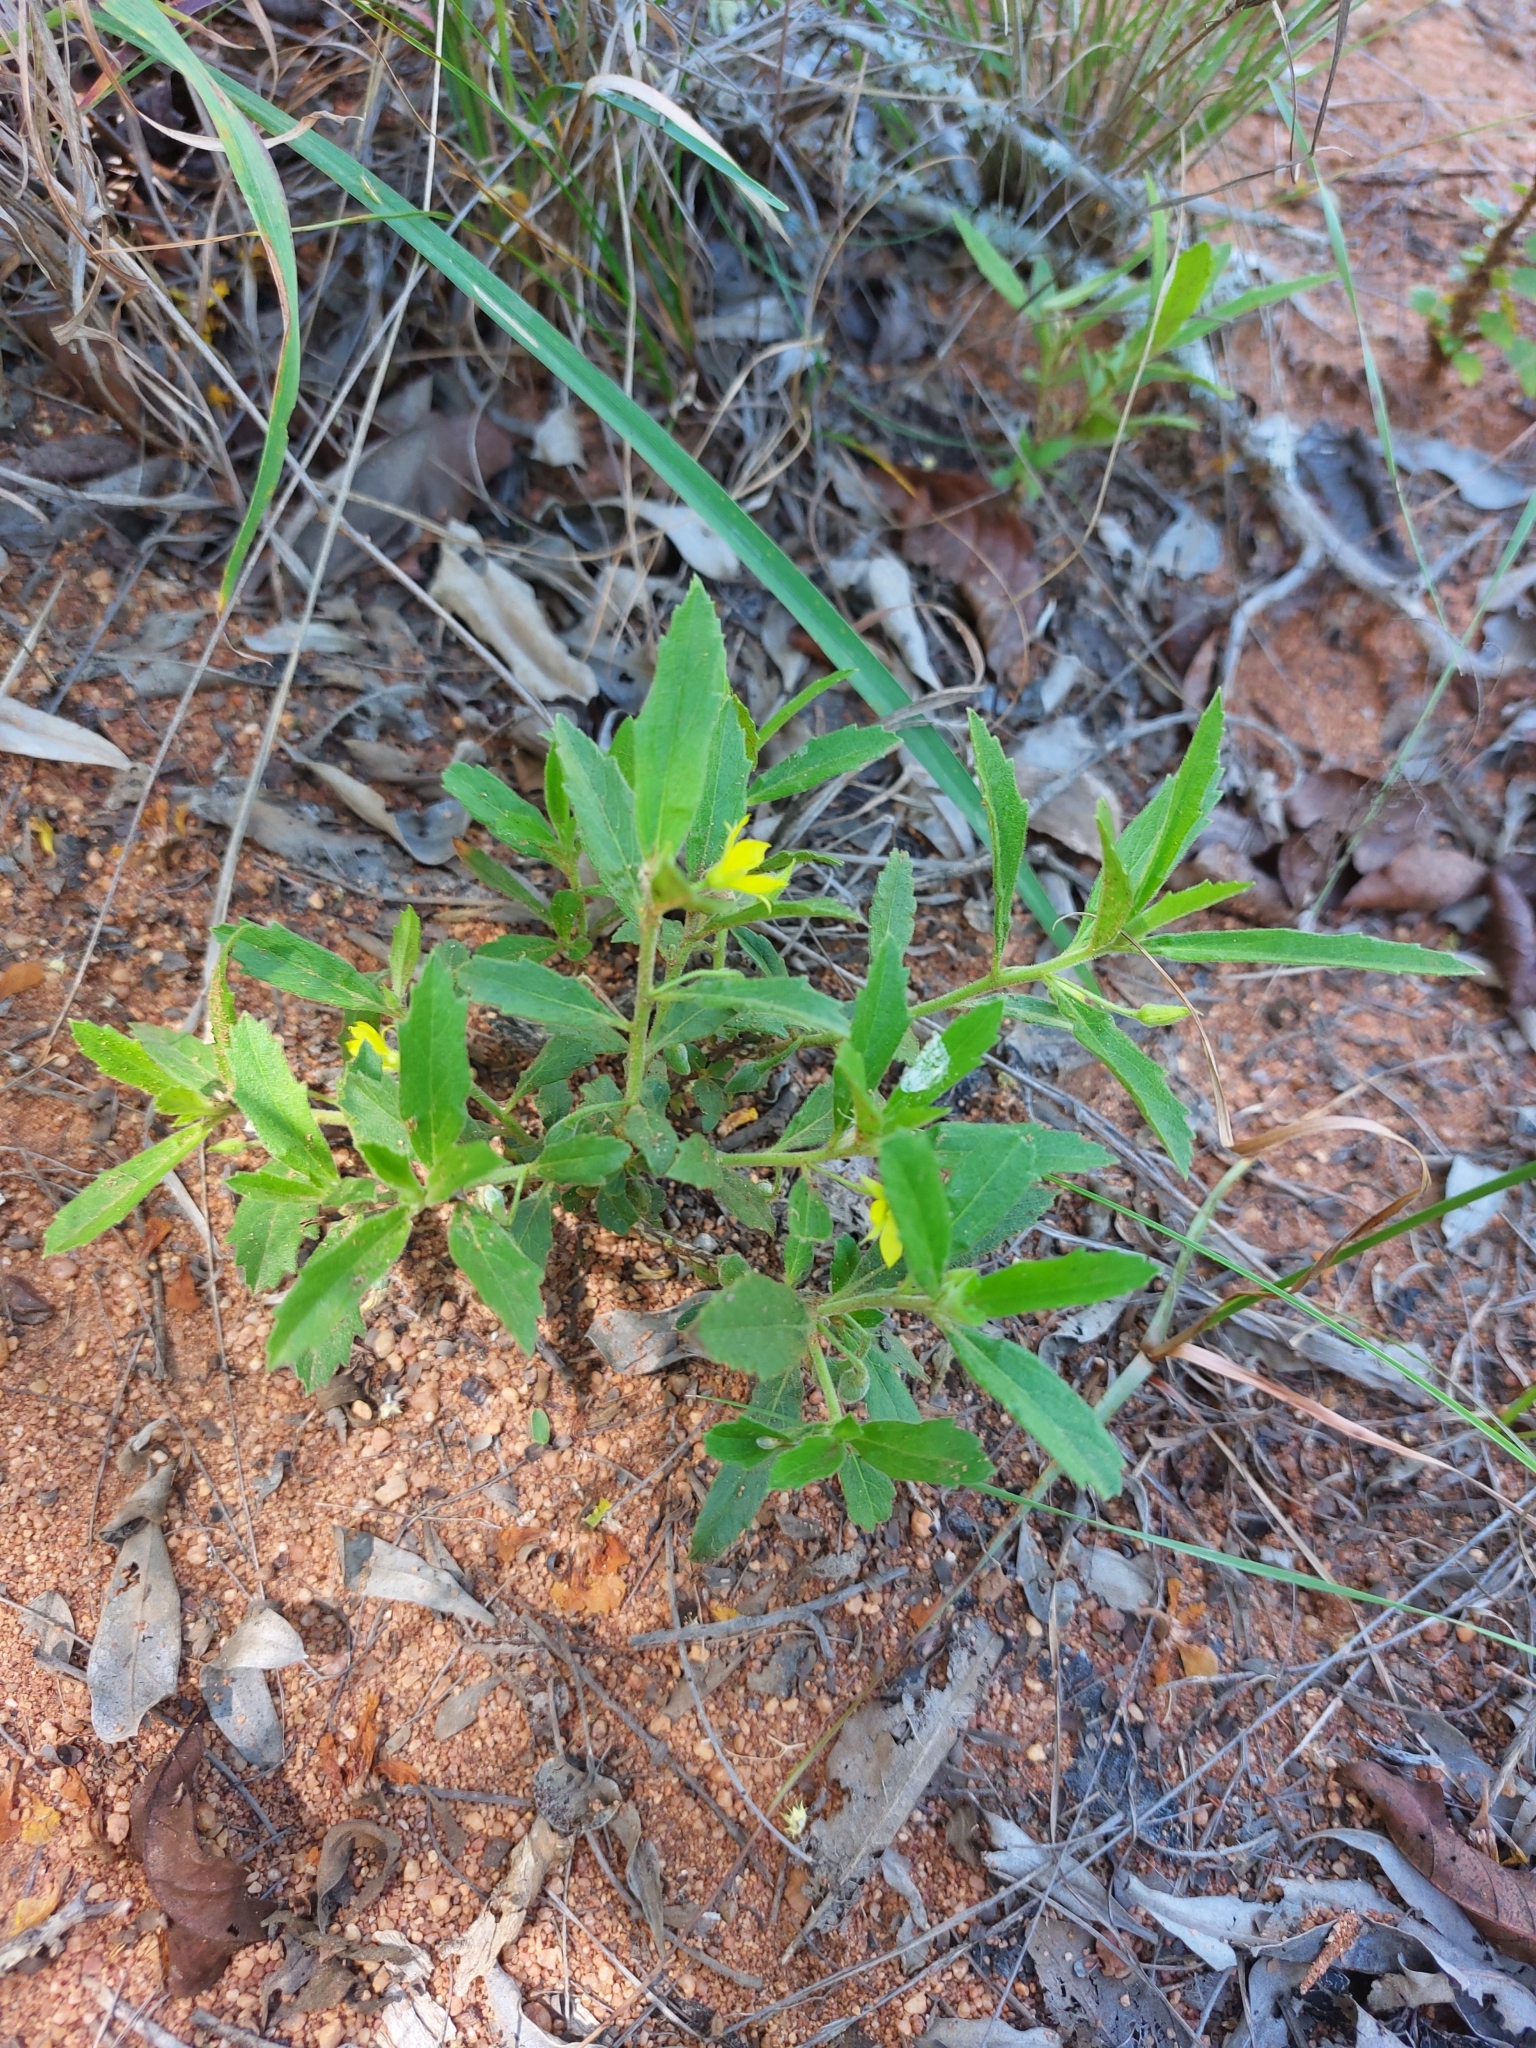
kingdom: Plantae
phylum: Tracheophyta
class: Magnoliopsida
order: Malpighiales
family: Turneraceae
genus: Afroqueta
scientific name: Afroqueta capensis
